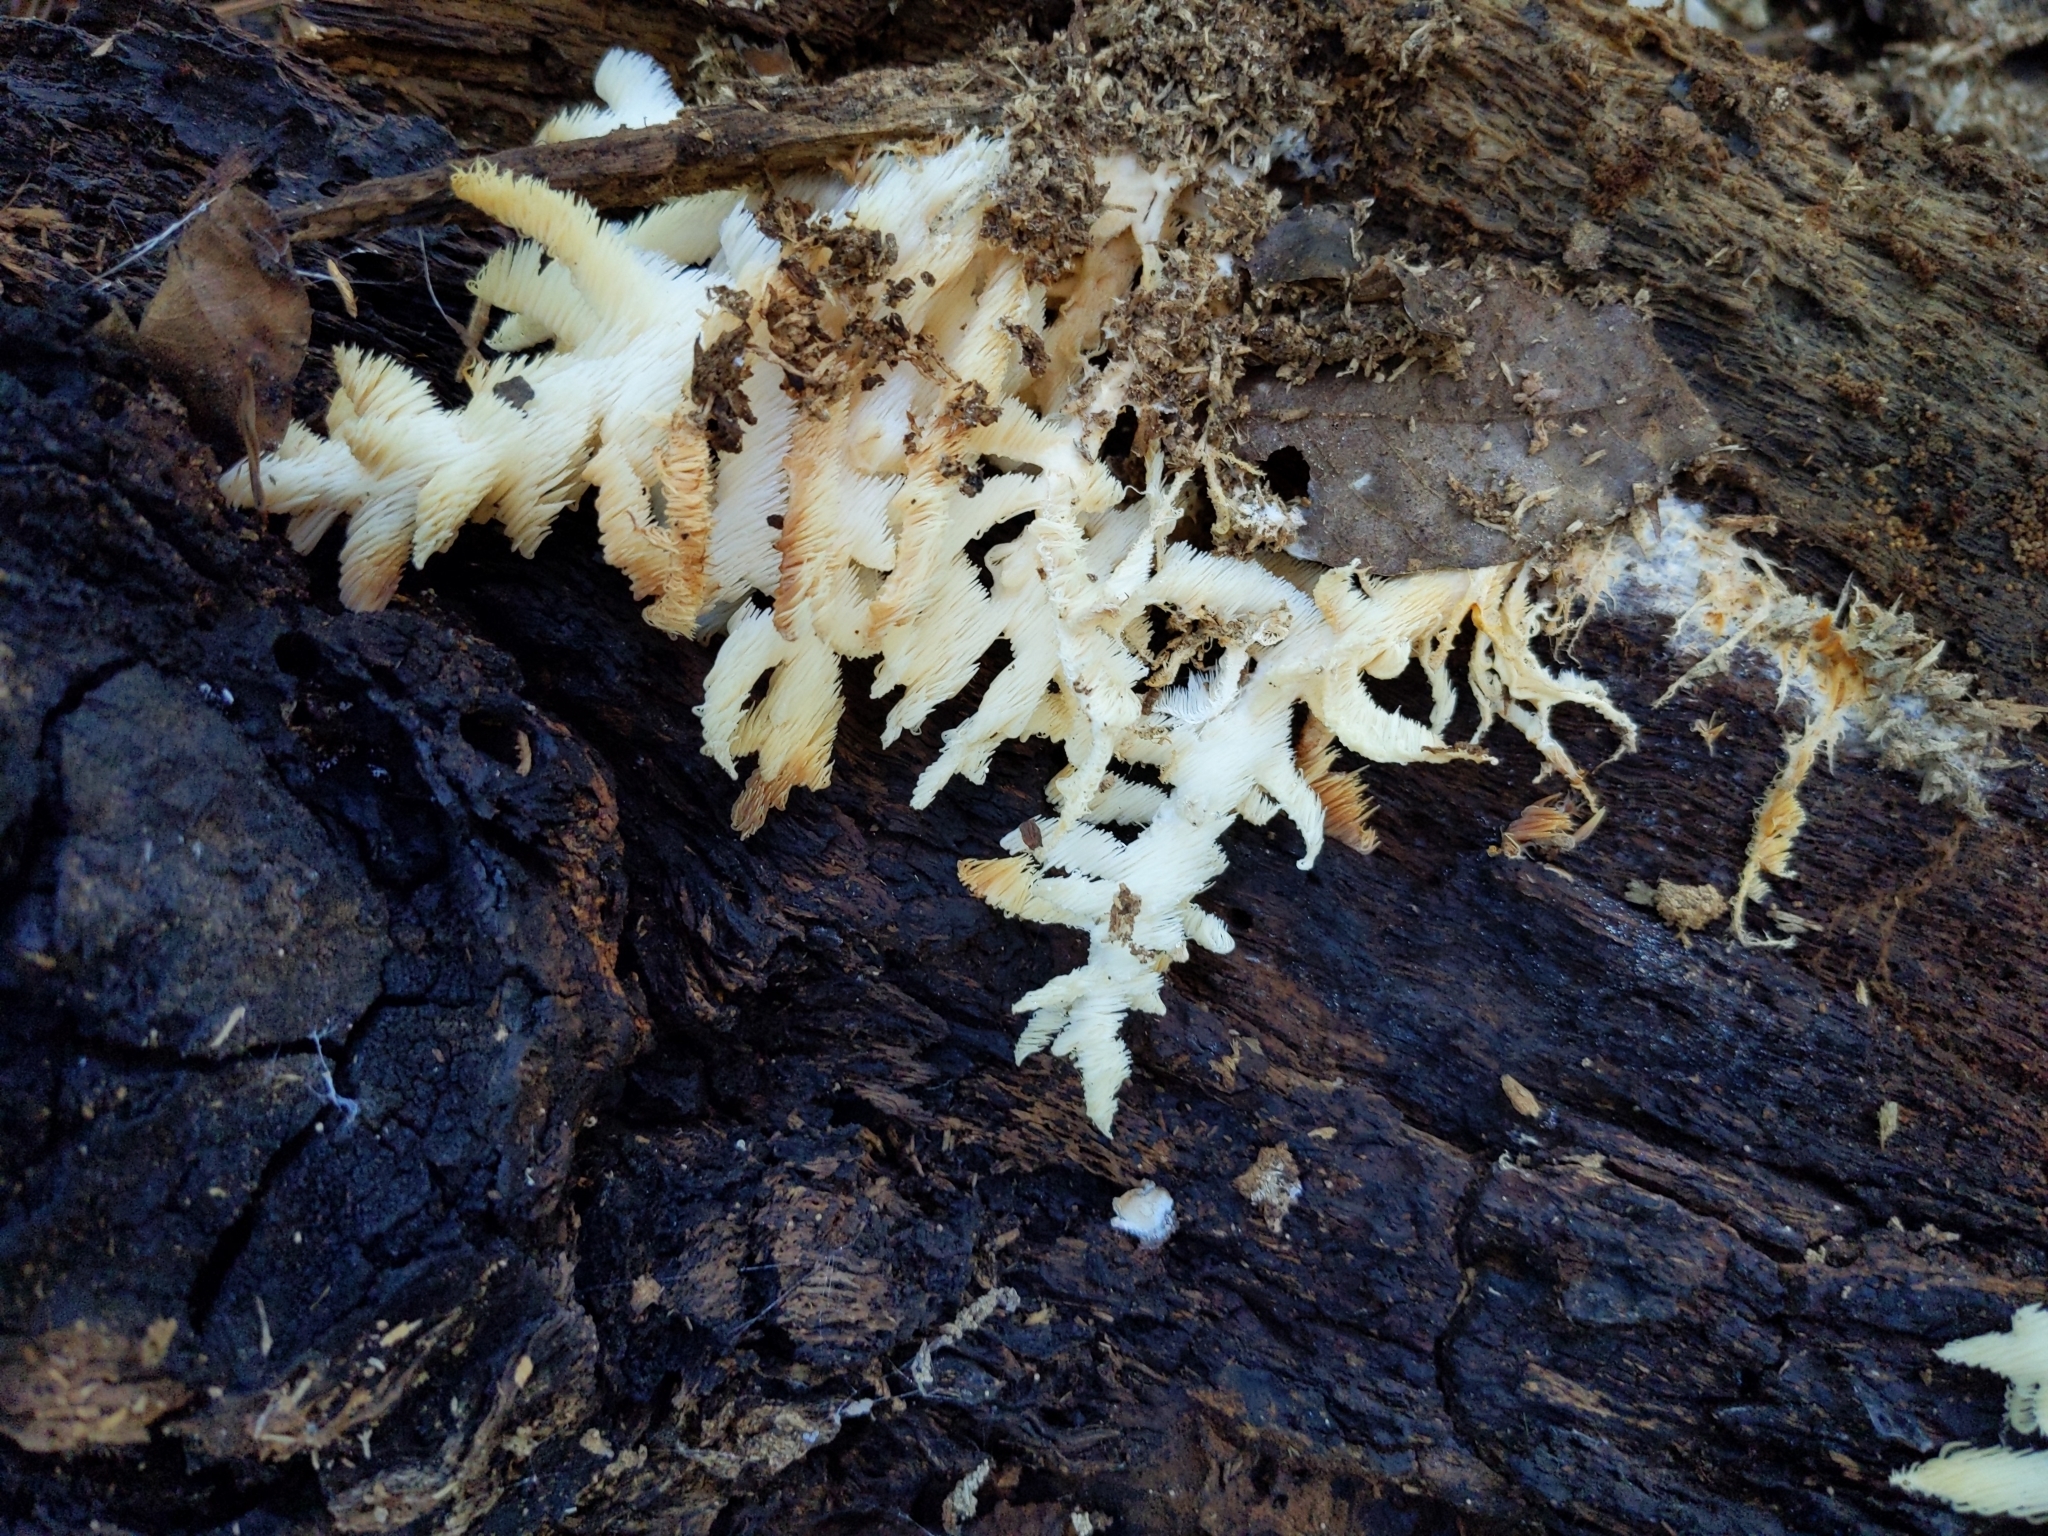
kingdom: Fungi
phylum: Basidiomycota
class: Agaricomycetes
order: Russulales
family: Hericiaceae
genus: Hericium
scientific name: Hericium coralloides
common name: Coral tooth
